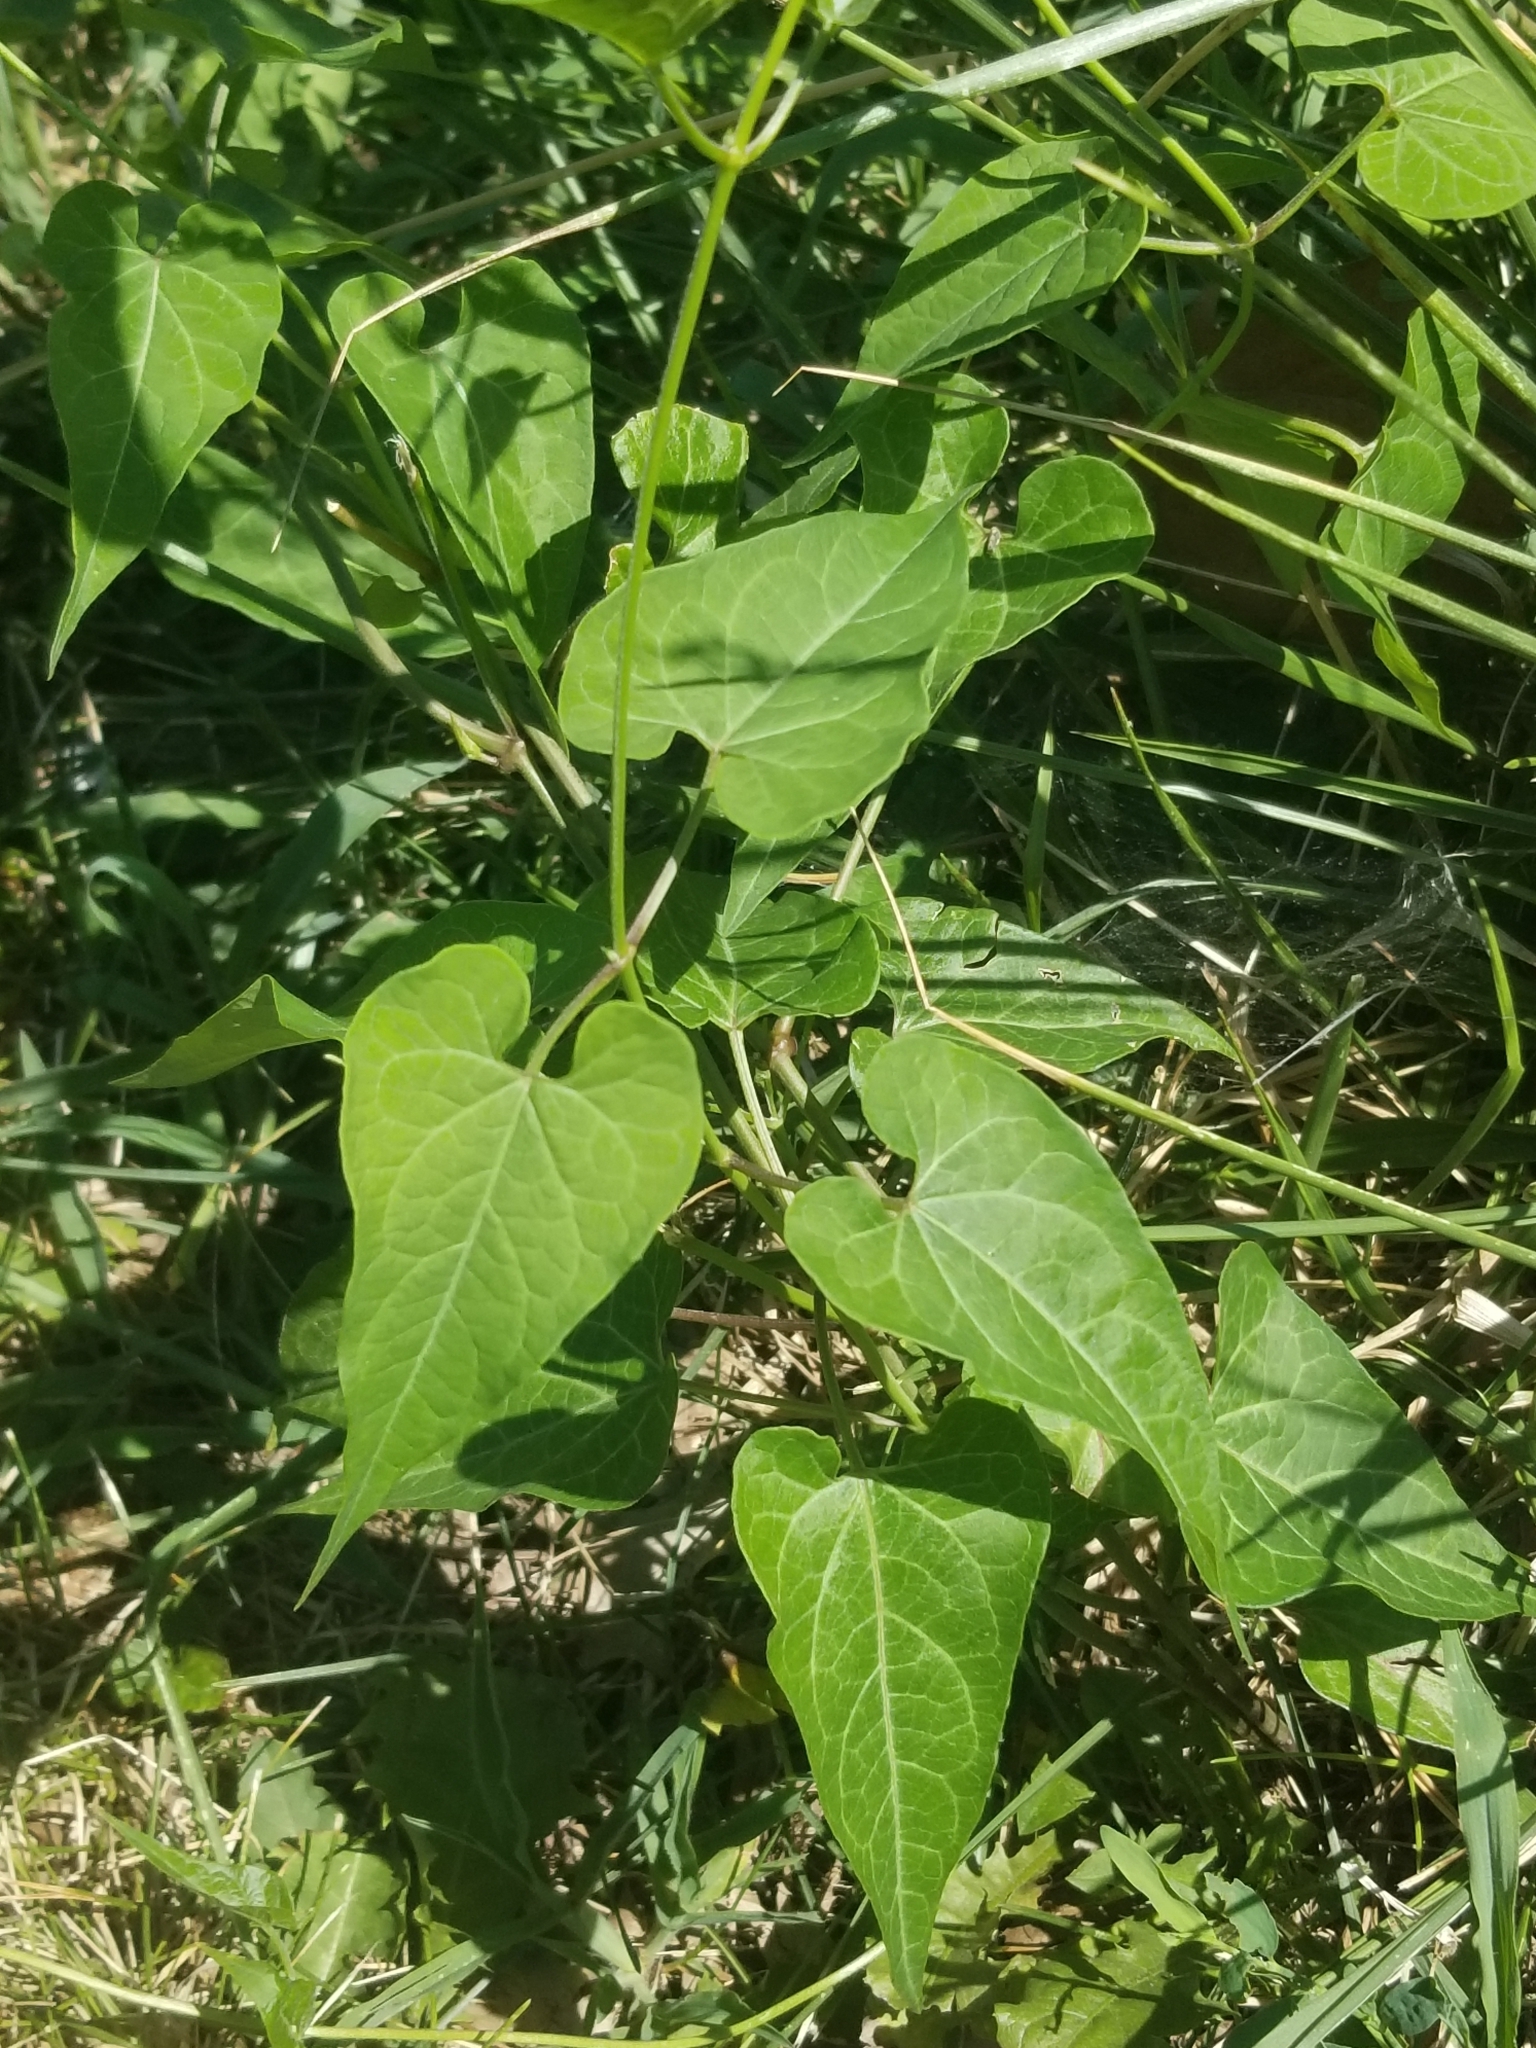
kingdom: Plantae
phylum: Tracheophyta
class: Magnoliopsida
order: Gentianales
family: Apocynaceae
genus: Cynanchum
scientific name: Cynanchum laeve
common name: Sandvine
